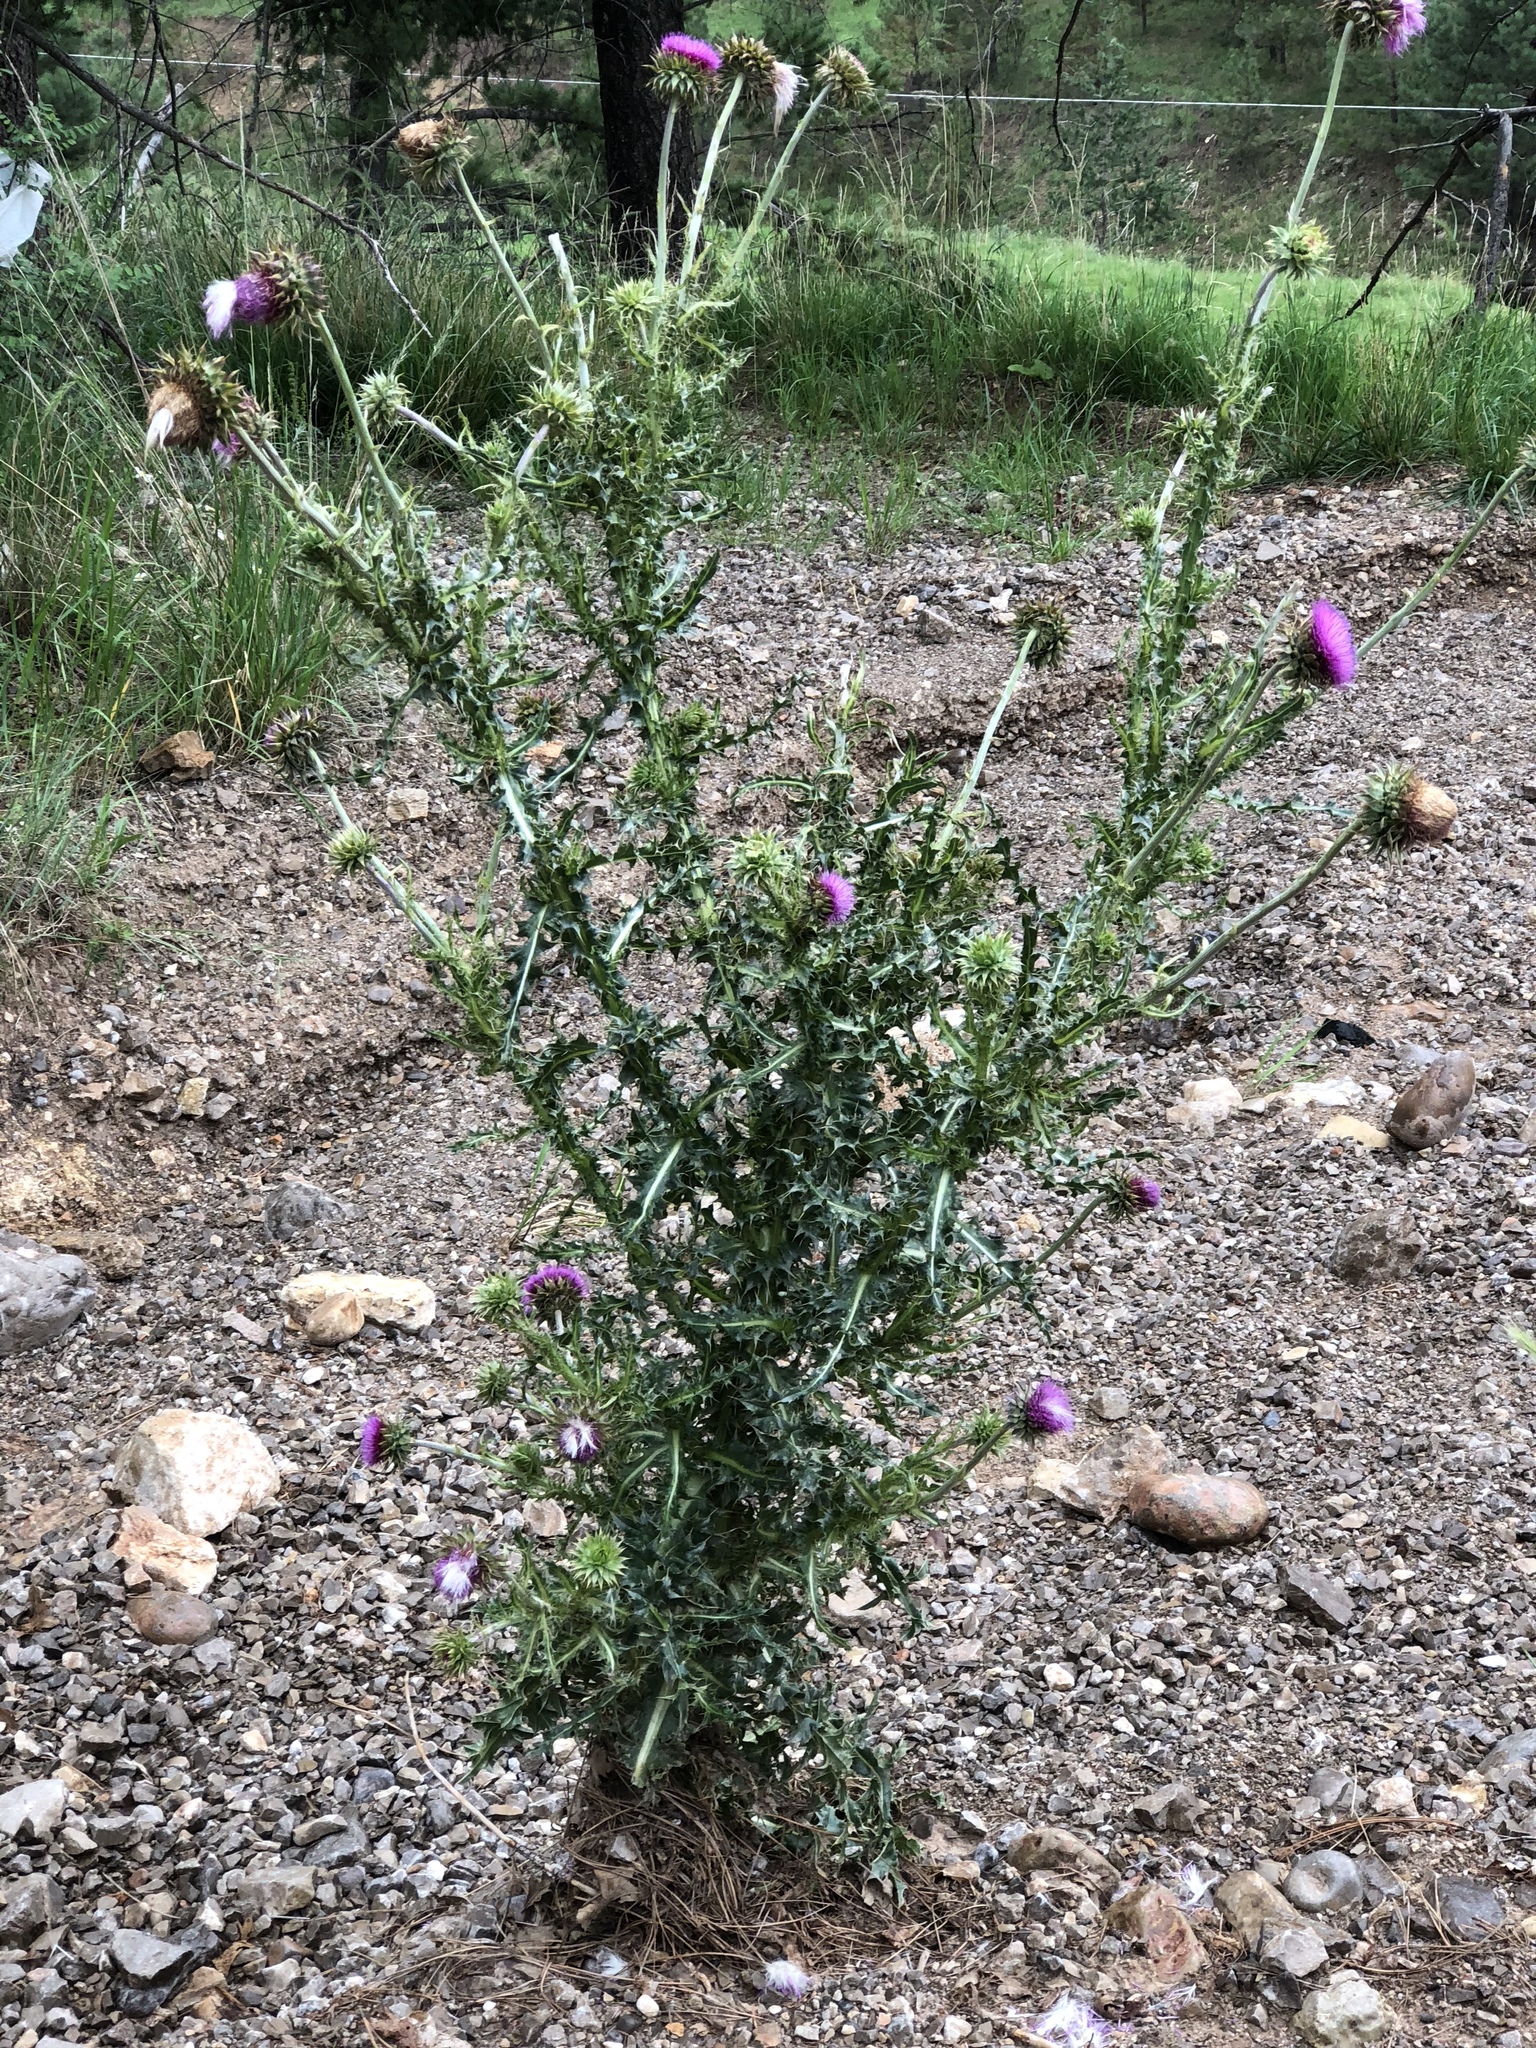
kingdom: Plantae
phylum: Tracheophyta
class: Magnoliopsida
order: Asterales
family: Asteraceae
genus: Carduus
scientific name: Carduus nutans
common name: Musk thistle
